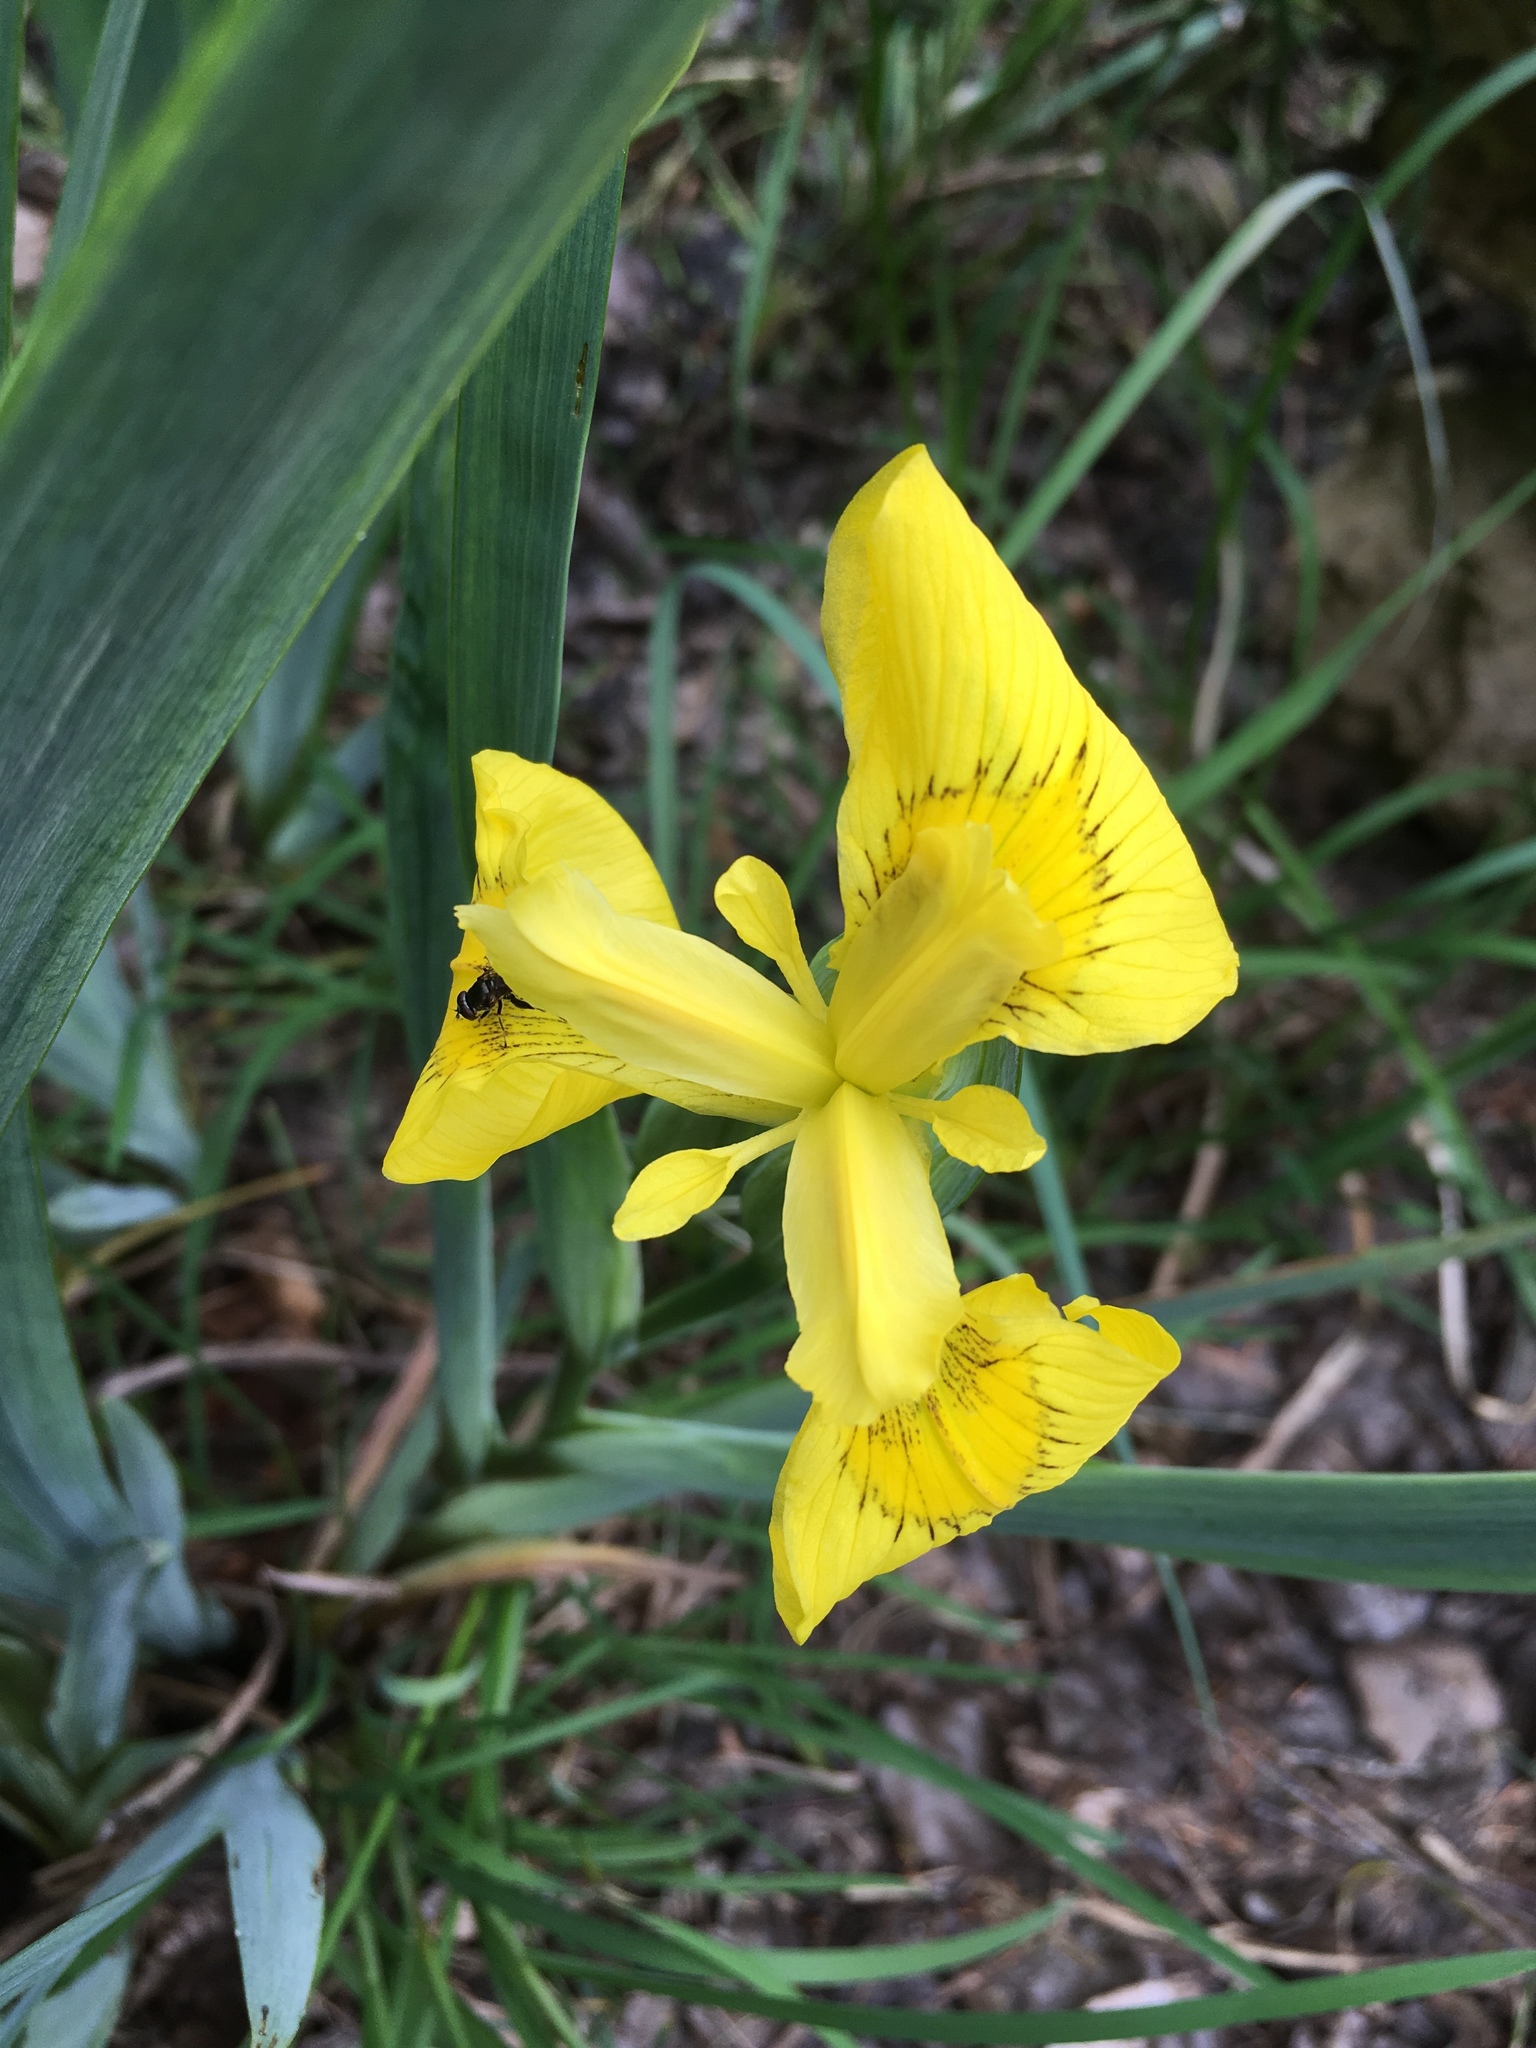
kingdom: Plantae
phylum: Tracheophyta
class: Liliopsida
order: Asparagales
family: Iridaceae
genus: Iris
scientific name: Iris pseudacorus
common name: Yellow flag
